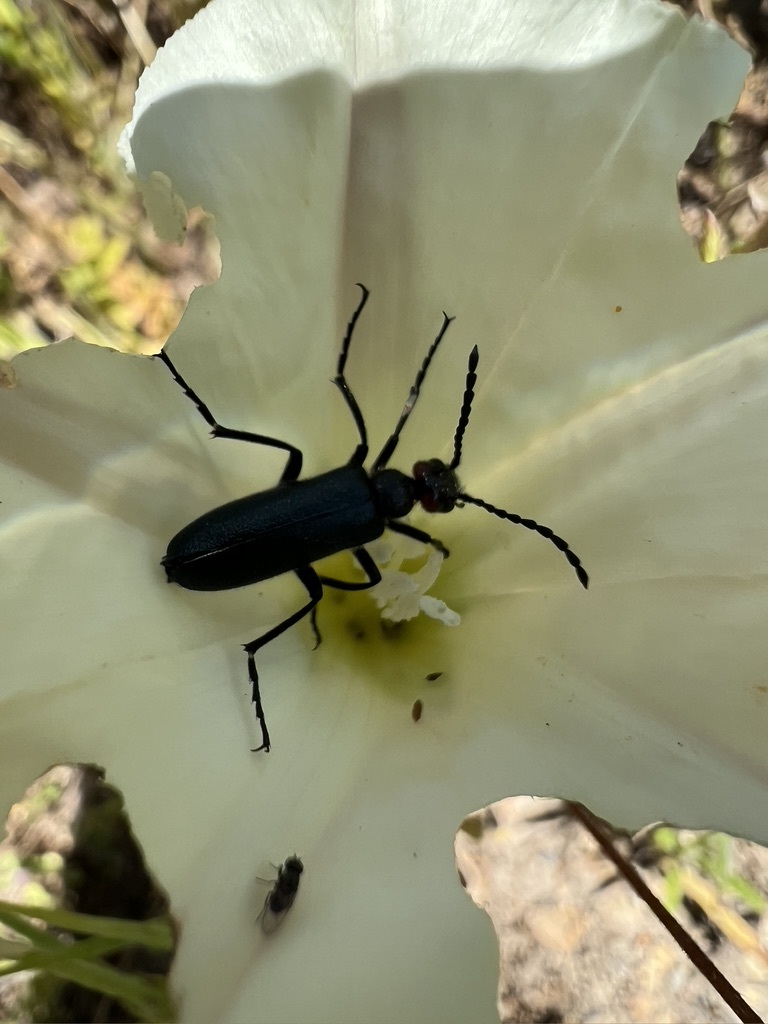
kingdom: Animalia
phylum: Arthropoda
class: Insecta
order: Coleoptera
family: Meloidae
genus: Lytta
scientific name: Lytta auriculata
